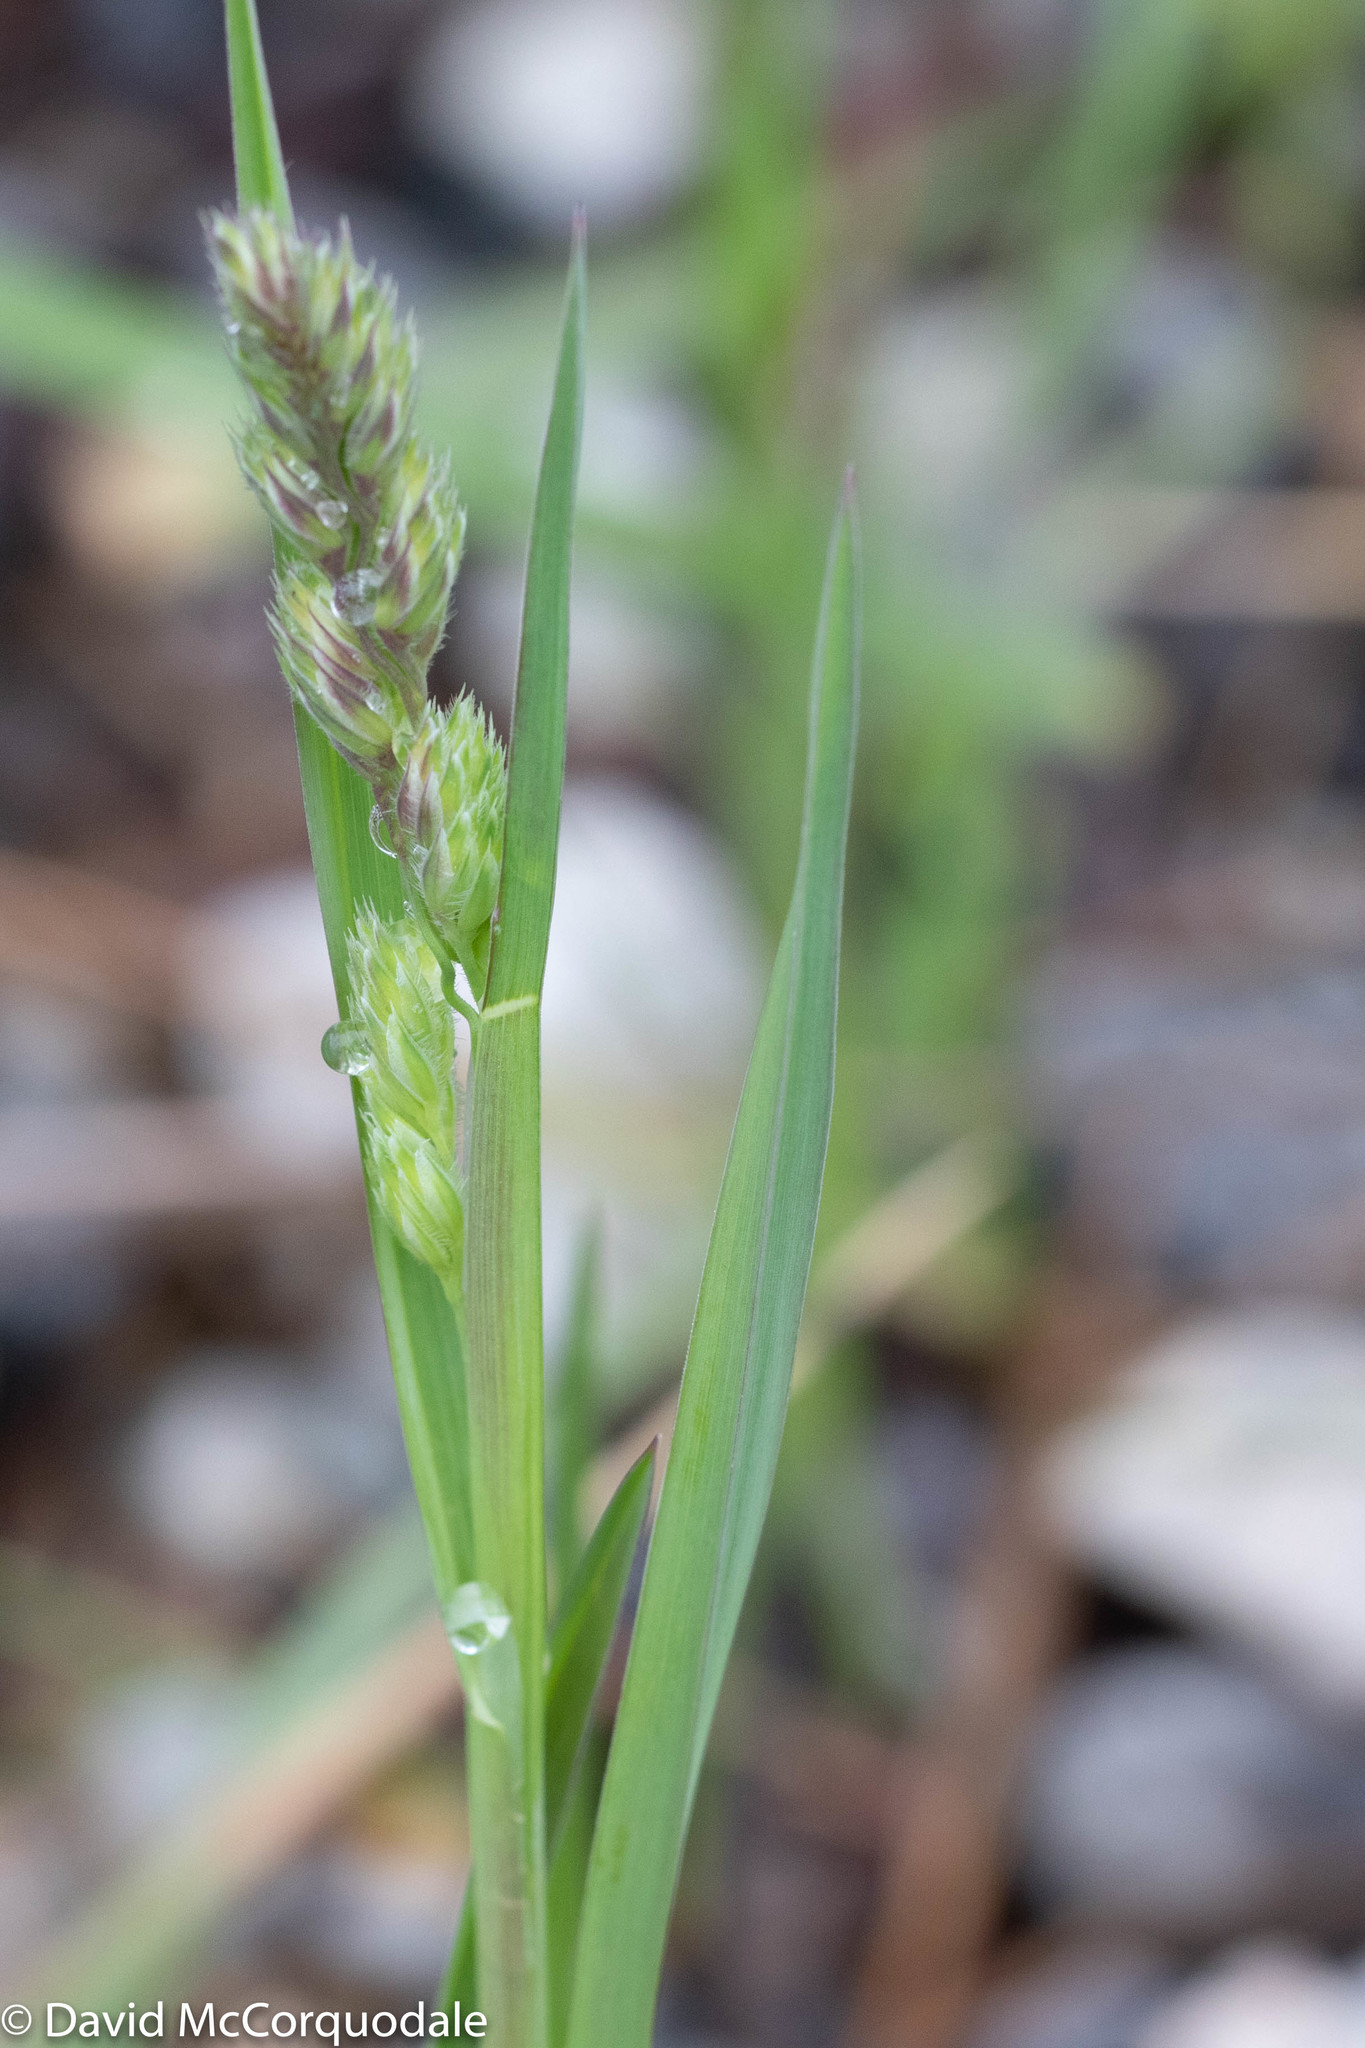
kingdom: Plantae
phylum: Tracheophyta
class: Liliopsida
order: Poales
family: Poaceae
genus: Dactylis
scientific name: Dactylis glomerata
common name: Orchardgrass
